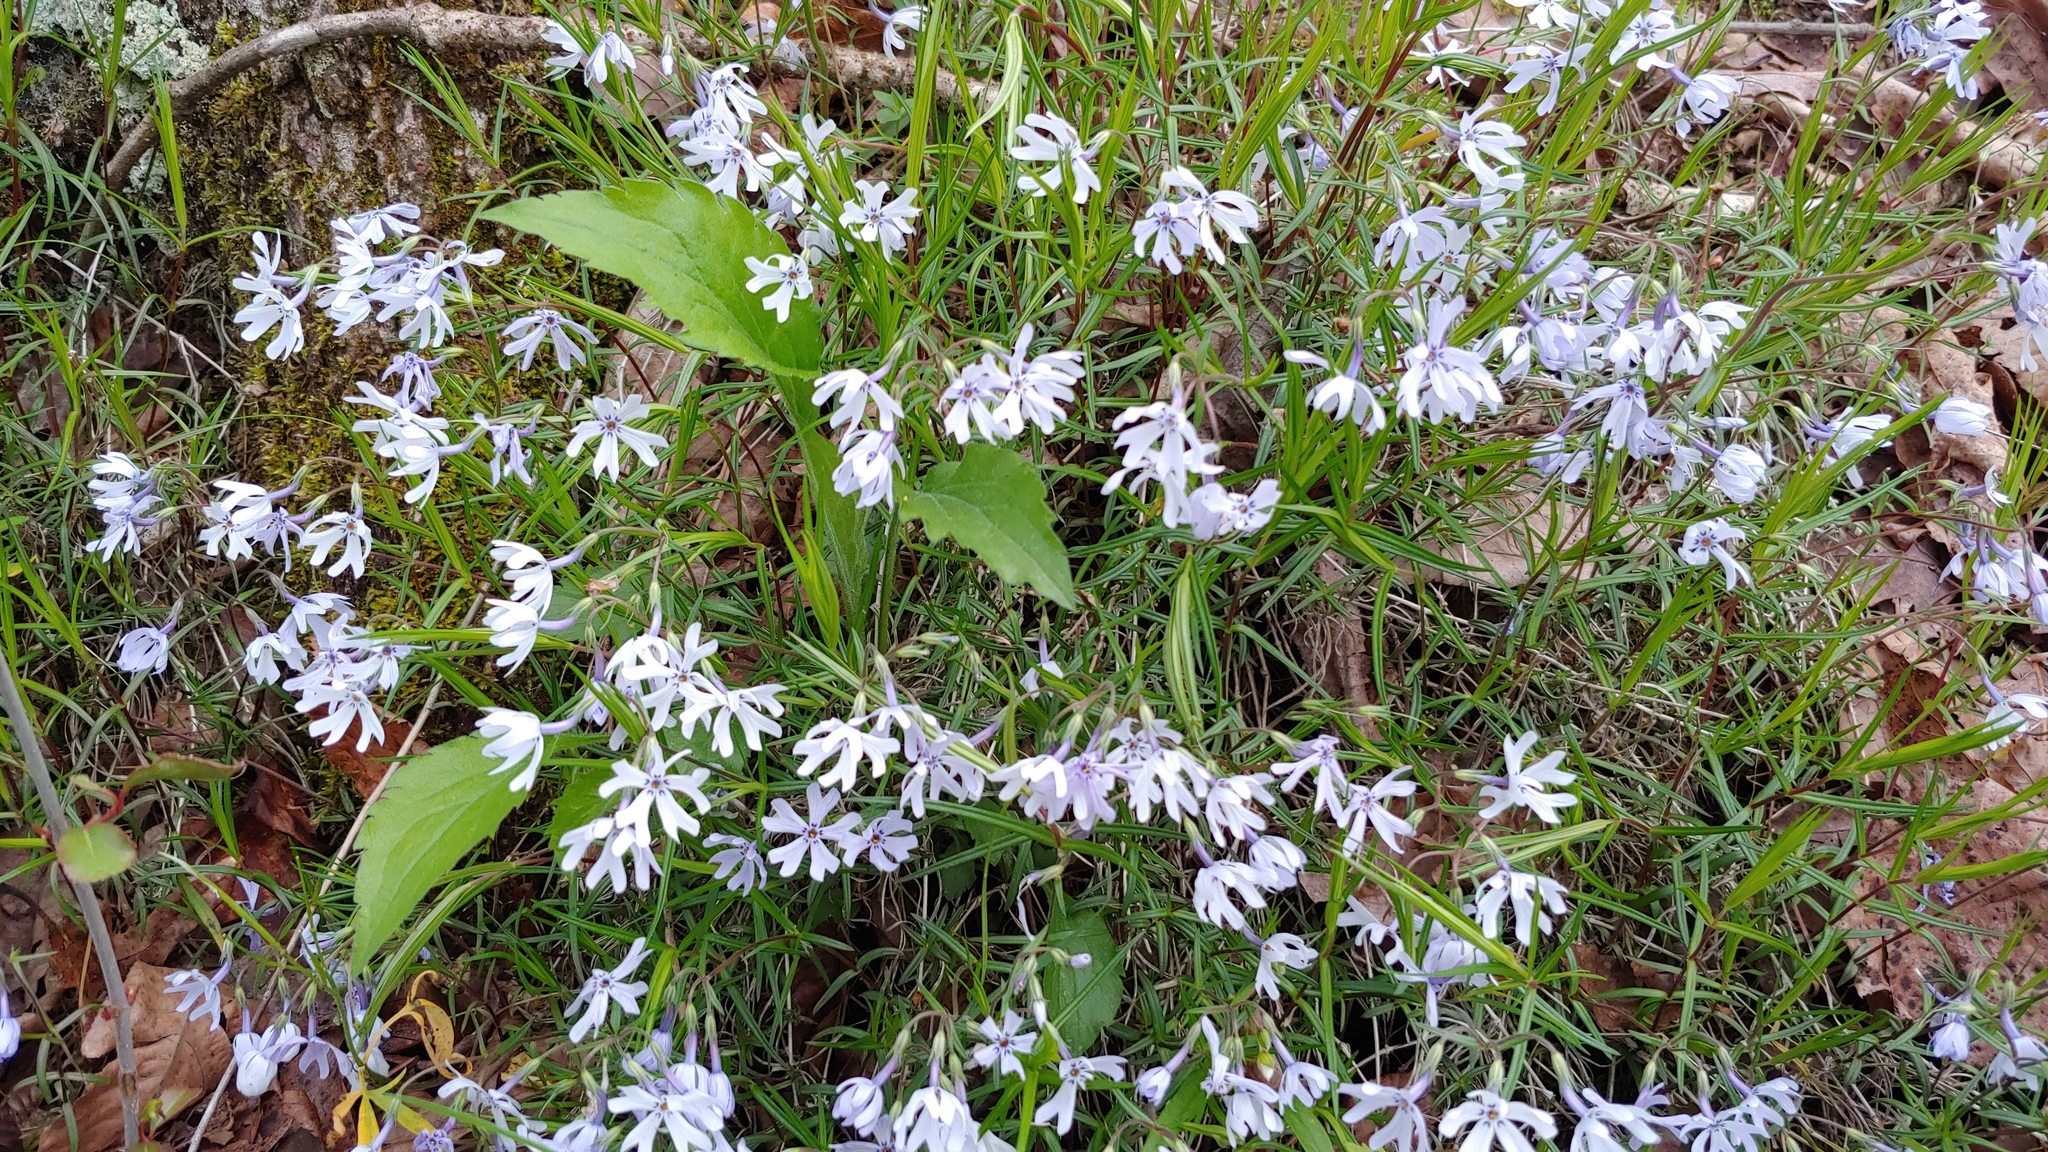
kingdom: Plantae
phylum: Tracheophyta
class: Magnoliopsida
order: Ericales
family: Polemoniaceae
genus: Phlox
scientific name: Phlox bifida
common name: Sand phlox
